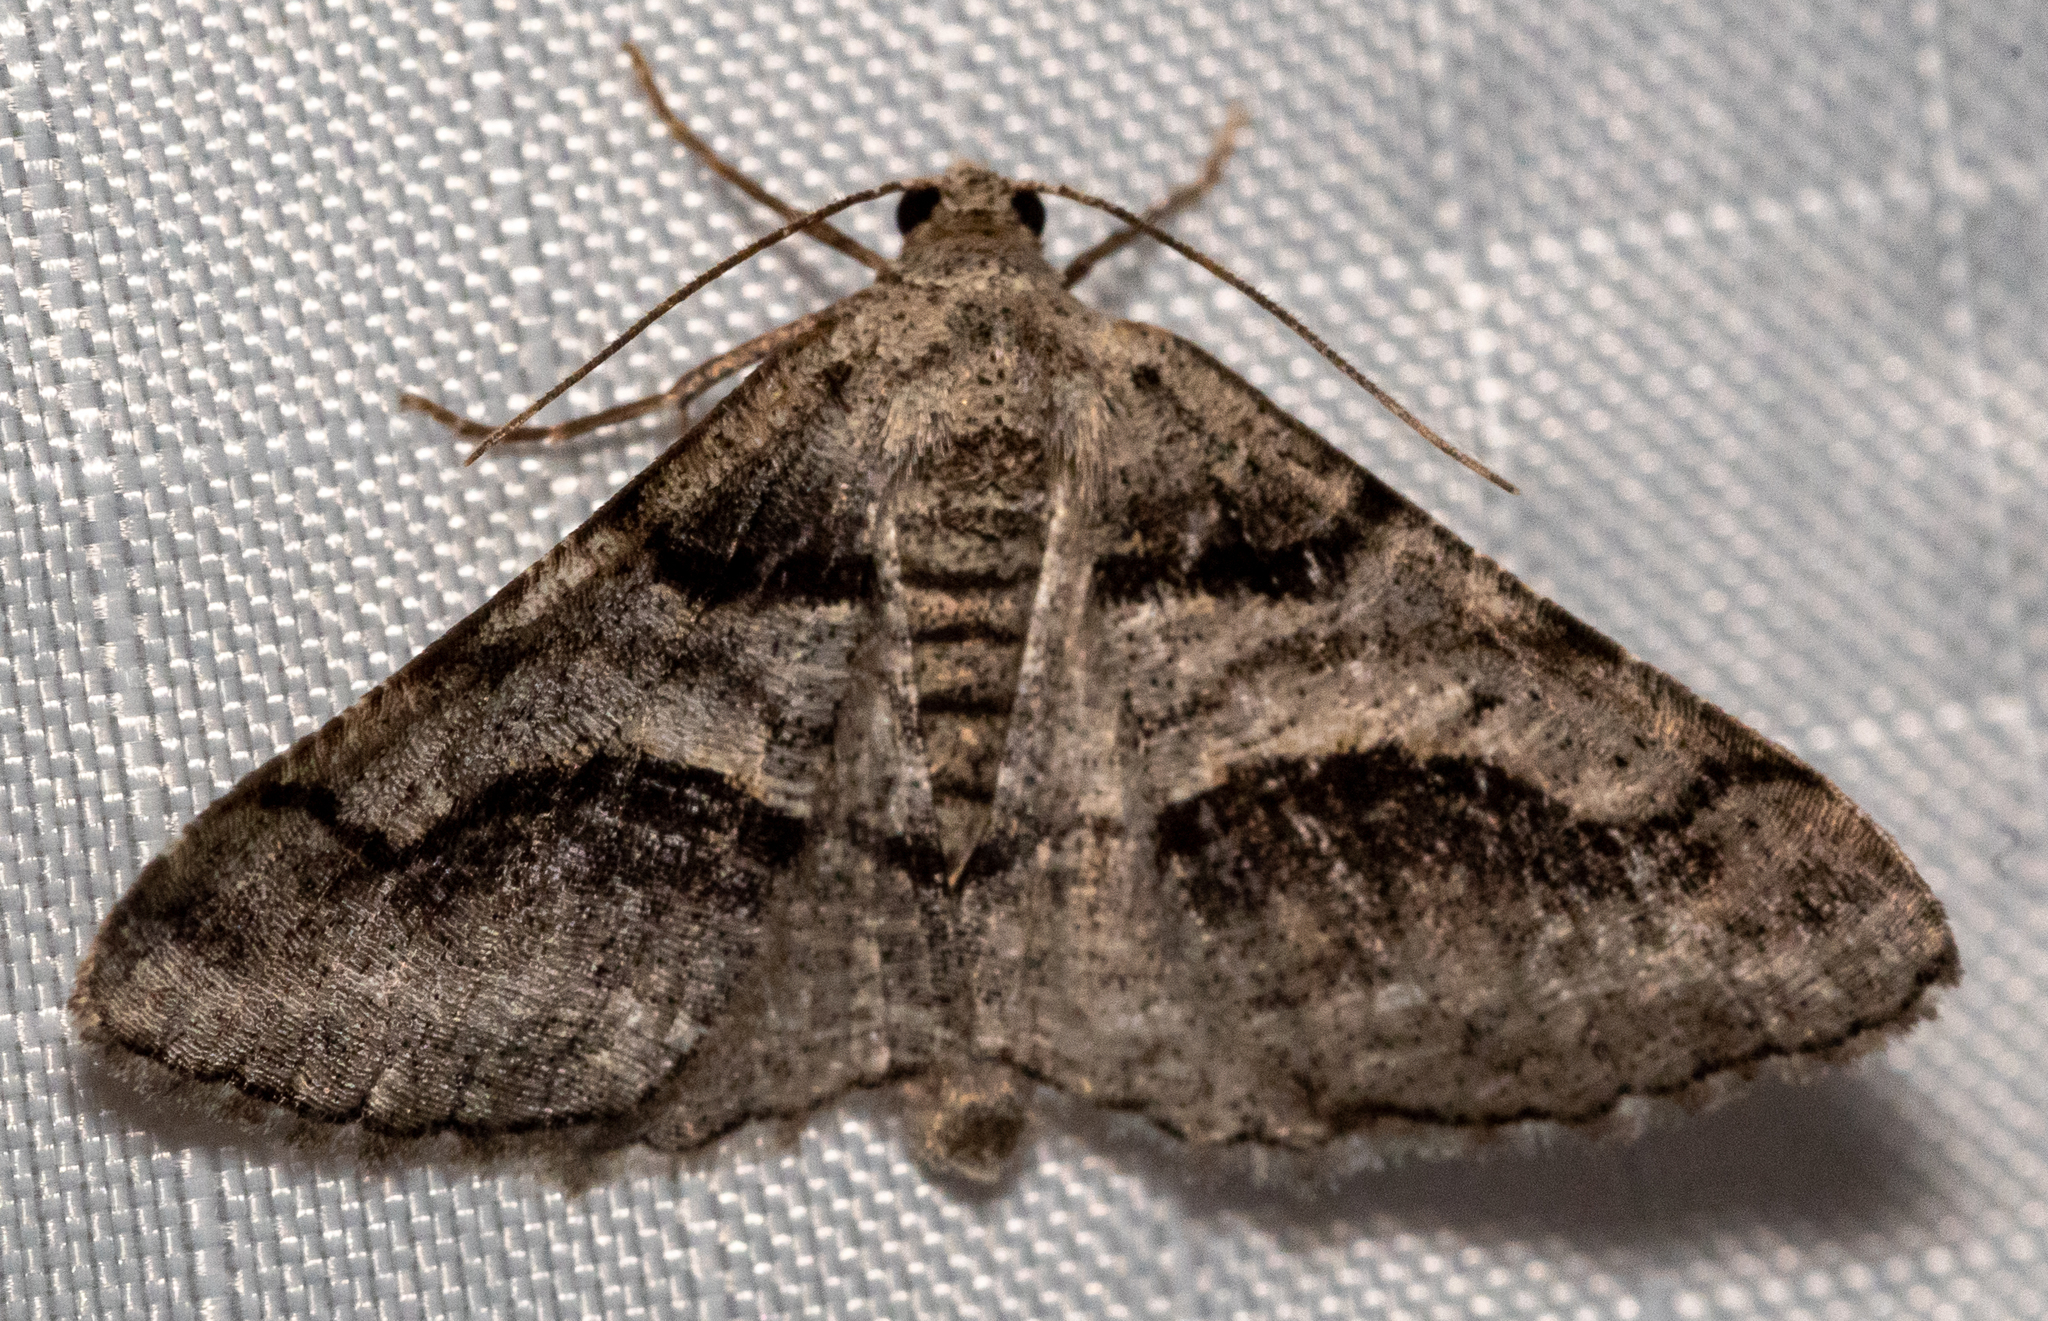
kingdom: Animalia
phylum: Arthropoda
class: Insecta
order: Lepidoptera
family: Geometridae
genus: Digrammia
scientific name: Digrammia continuata
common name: Curve-lined angle
